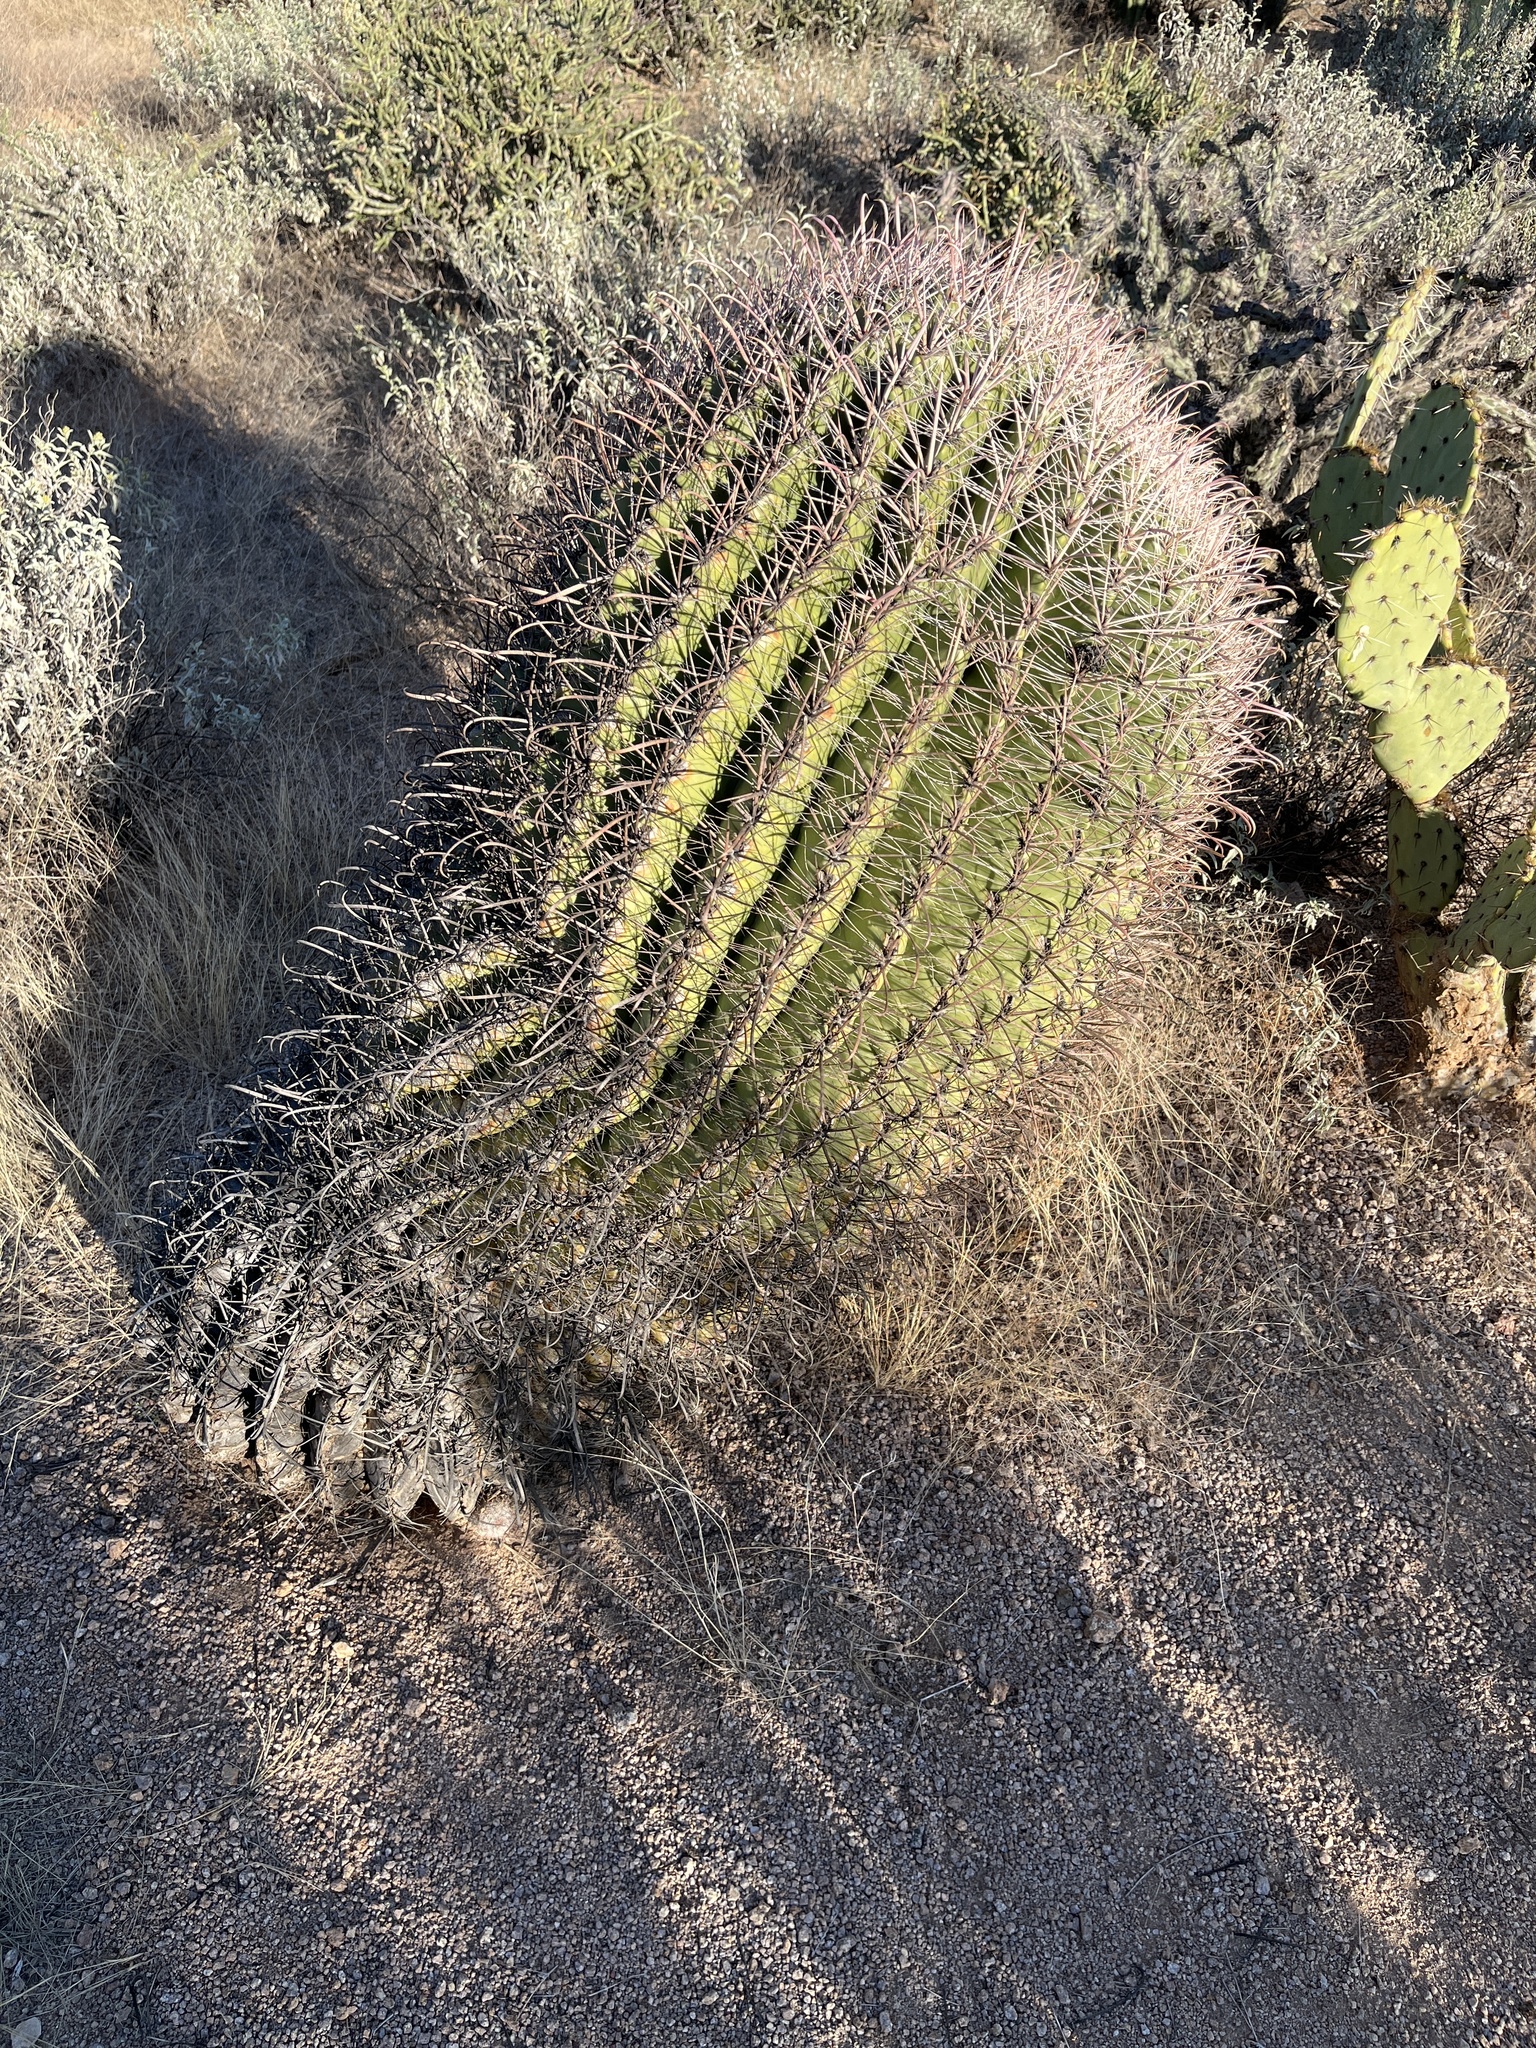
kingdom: Plantae
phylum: Tracheophyta
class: Magnoliopsida
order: Caryophyllales
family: Cactaceae
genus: Ferocactus
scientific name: Ferocactus wislizeni
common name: Candy barrel cactus
